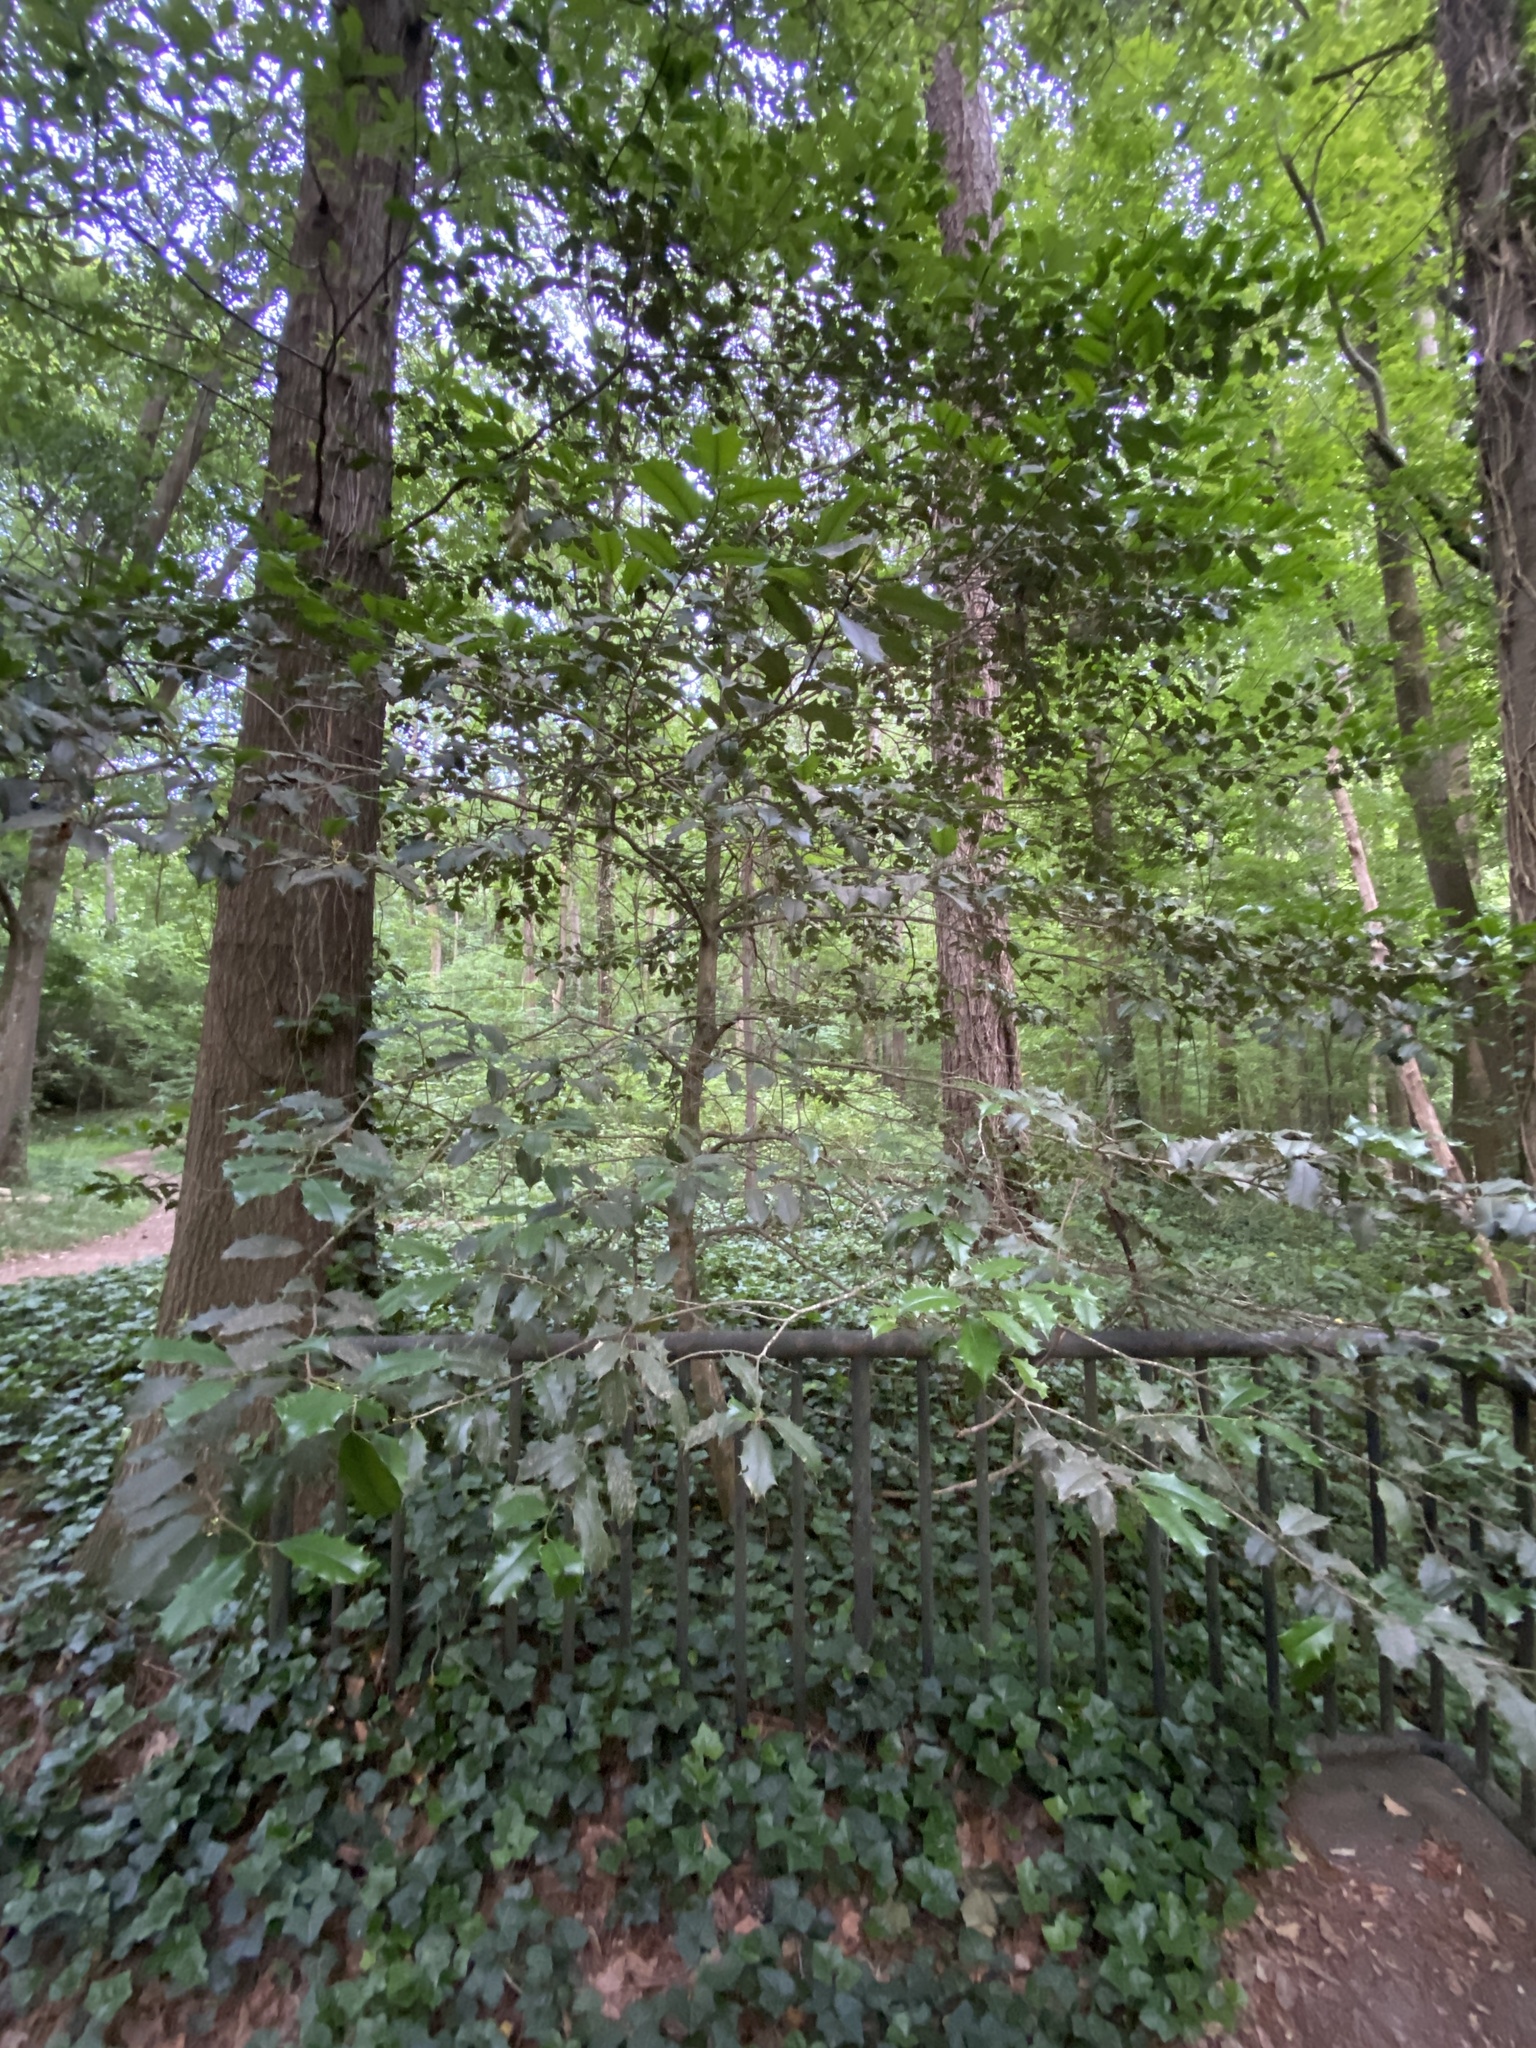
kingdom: Plantae
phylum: Tracheophyta
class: Magnoliopsida
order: Aquifoliales
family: Aquifoliaceae
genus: Ilex
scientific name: Ilex opaca
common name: American holly
